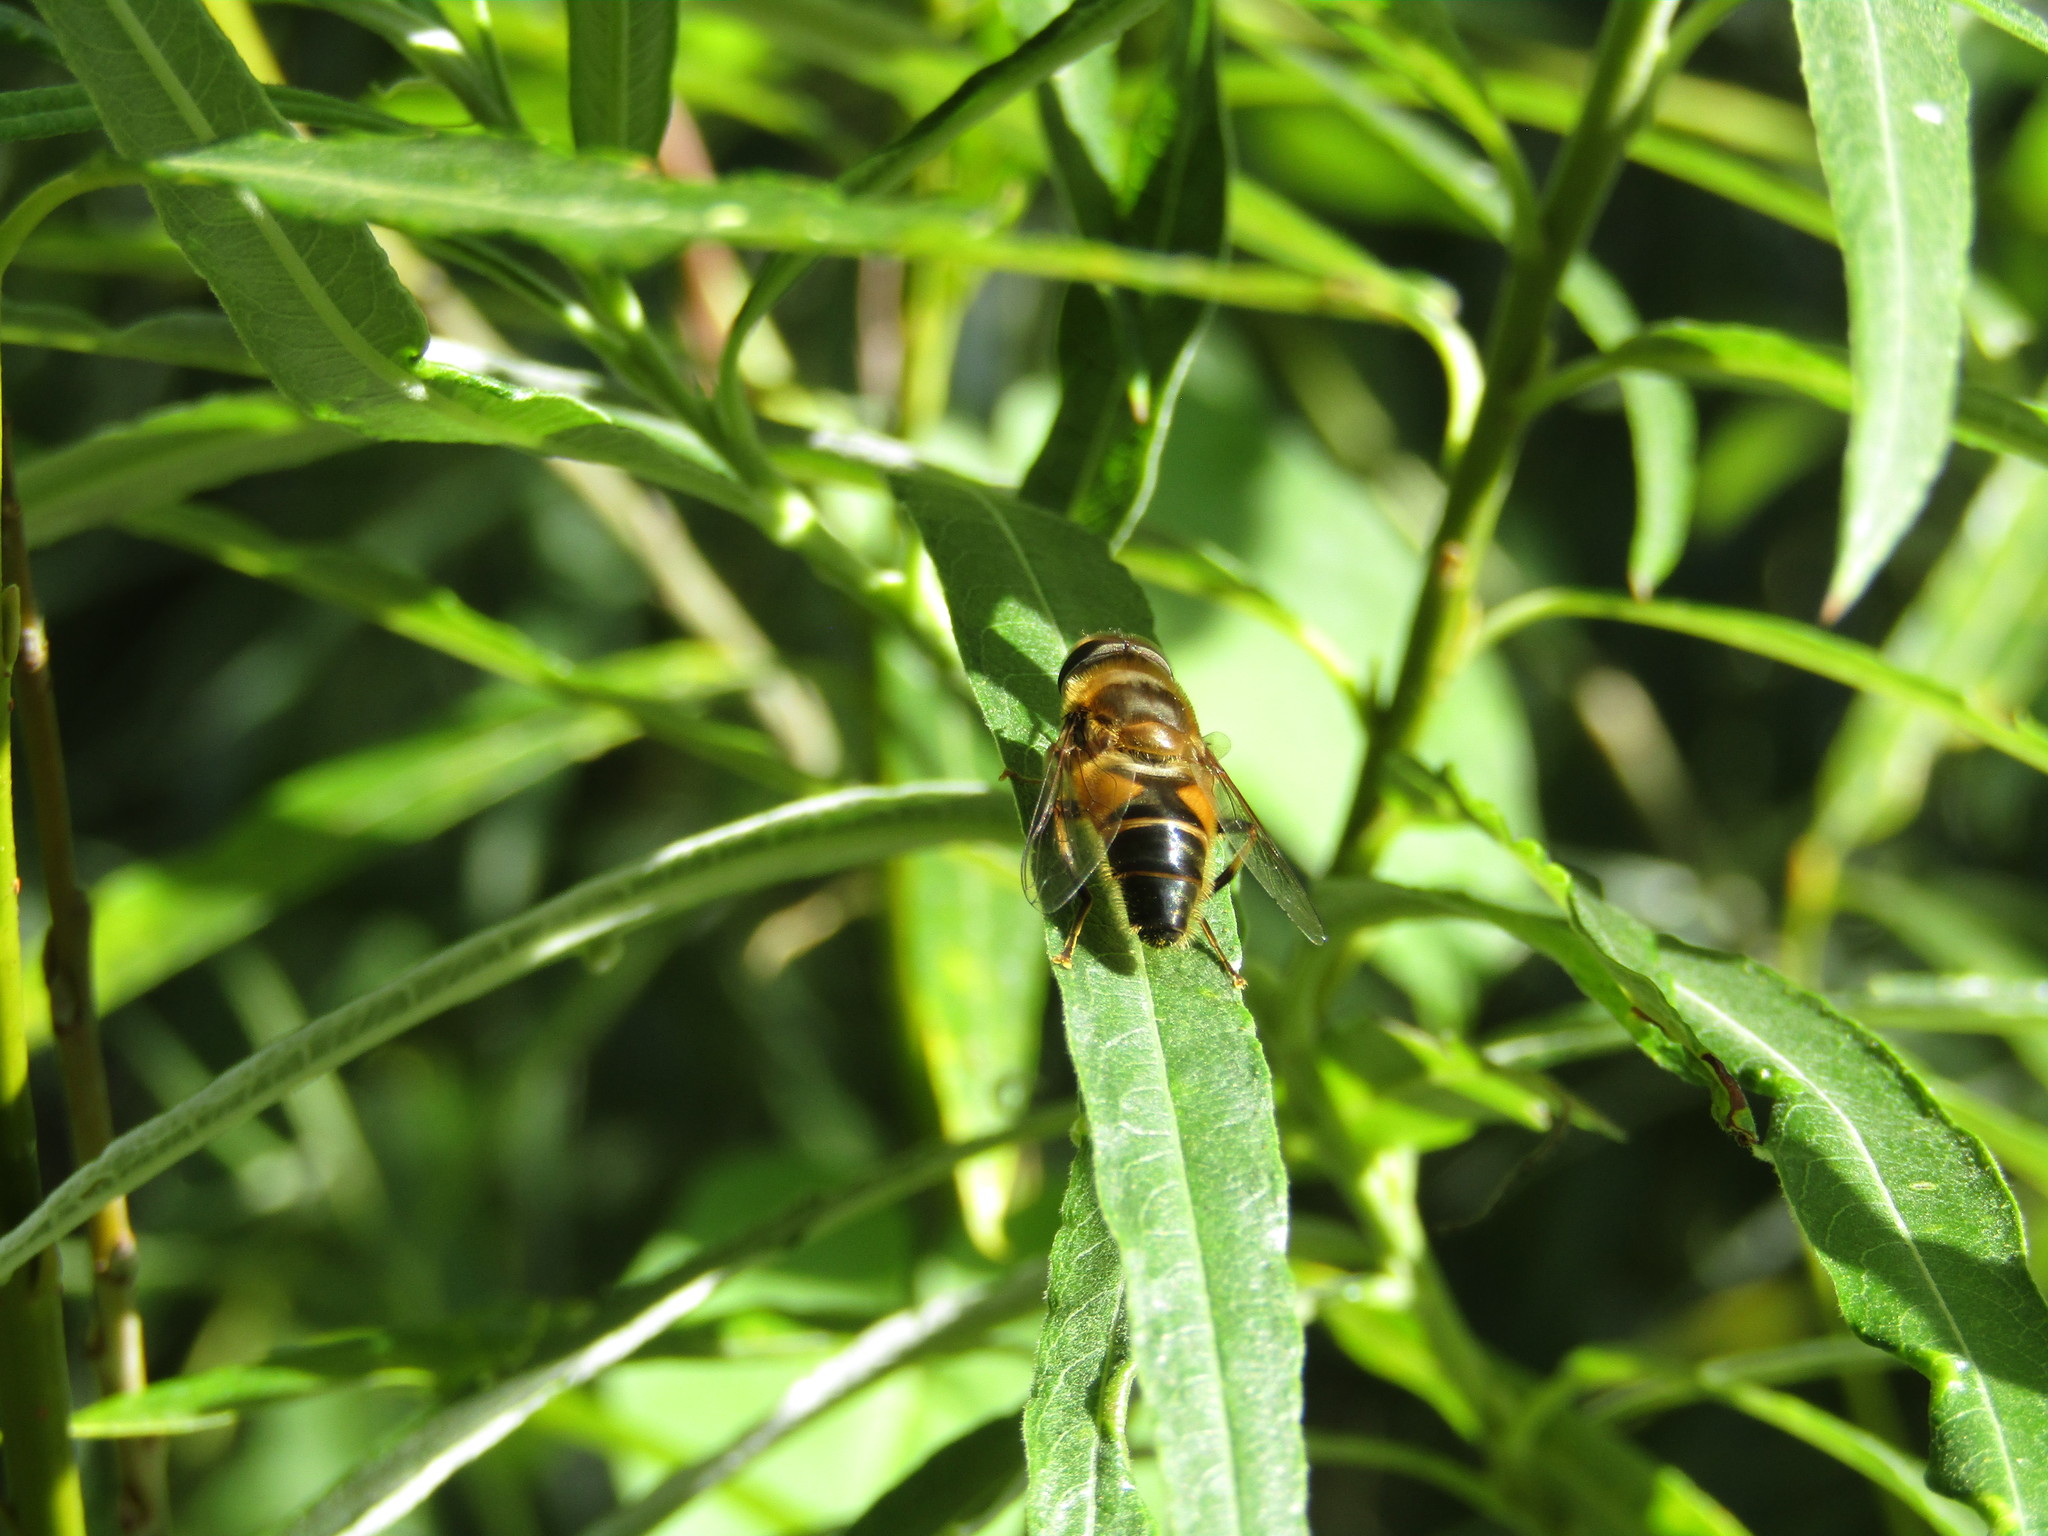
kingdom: Animalia
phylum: Arthropoda
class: Insecta
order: Diptera
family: Syrphidae
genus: Eristalis
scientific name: Eristalis pertinax
